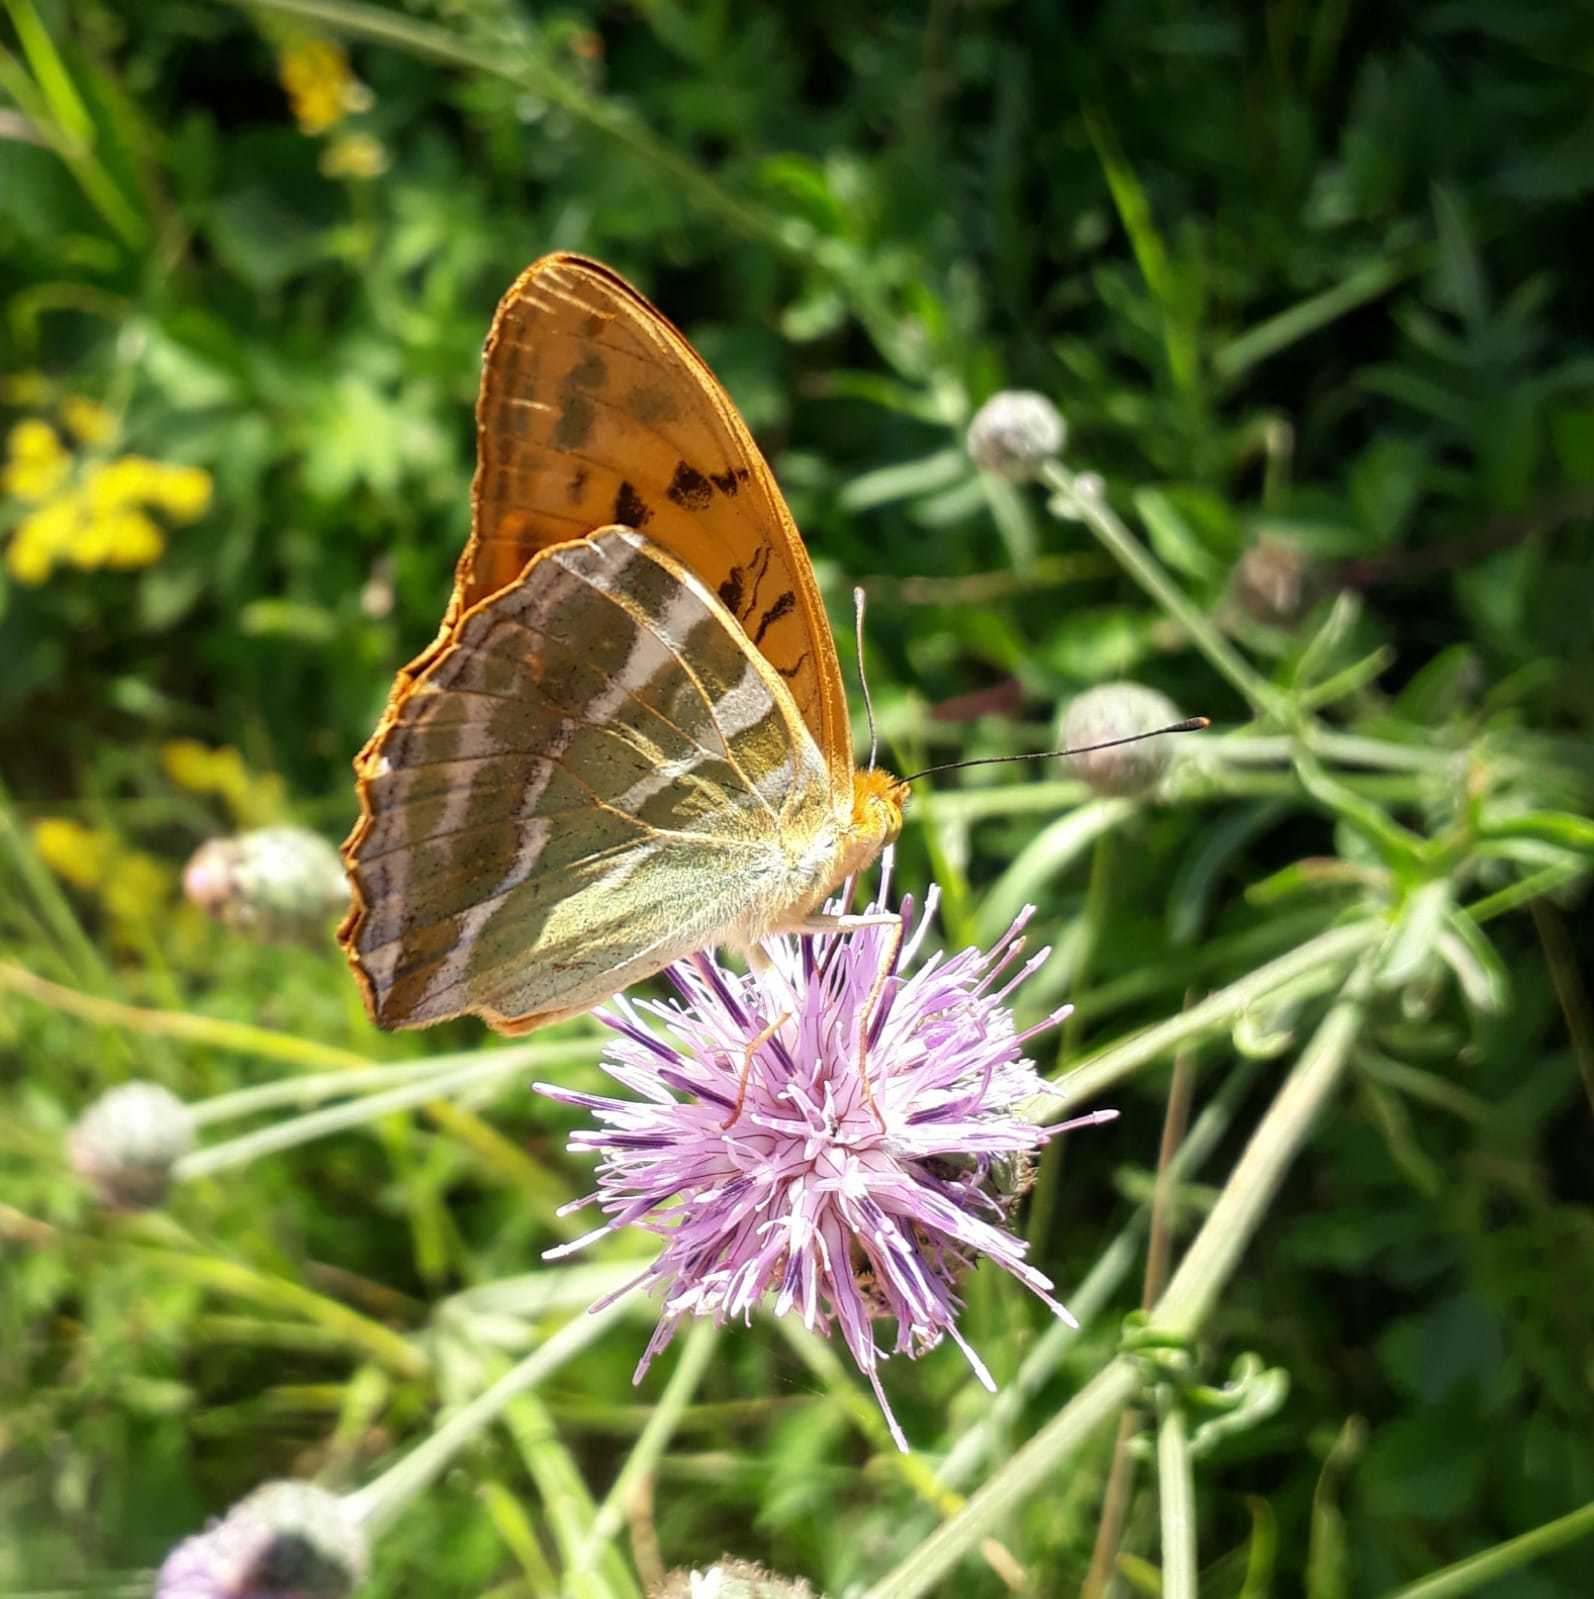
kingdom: Animalia
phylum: Arthropoda
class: Insecta
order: Lepidoptera
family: Nymphalidae
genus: Argynnis
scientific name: Argynnis paphia
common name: Silver-washed fritillary
